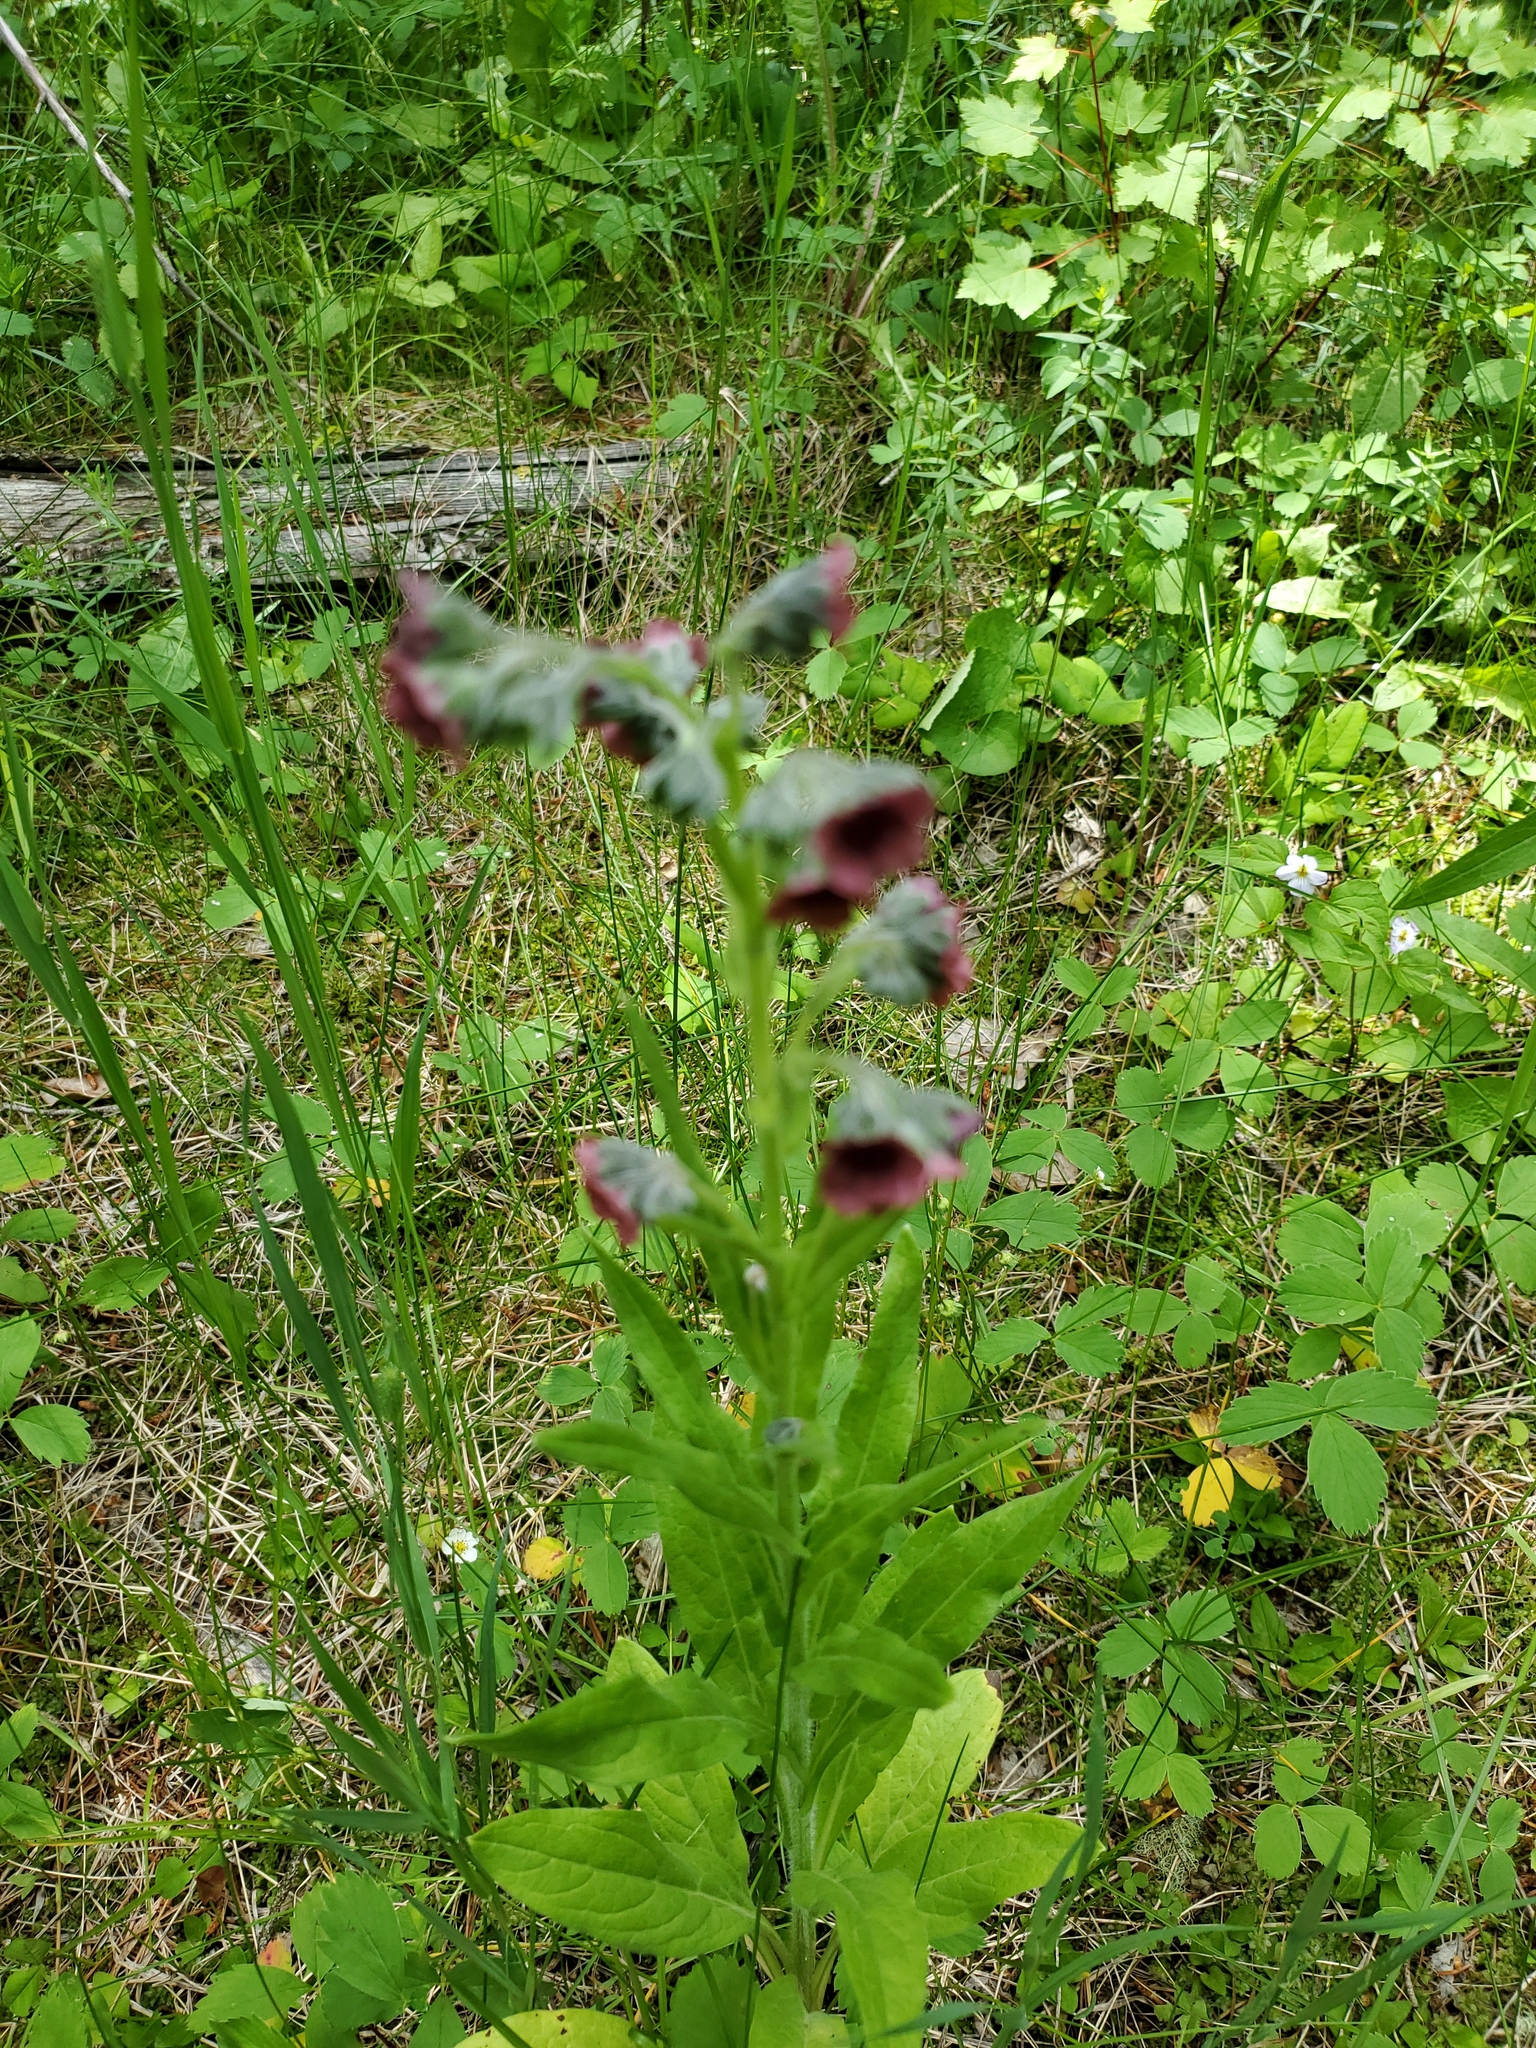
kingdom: Plantae
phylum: Tracheophyta
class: Magnoliopsida
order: Boraginales
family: Boraginaceae
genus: Cynoglossum
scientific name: Cynoglossum officinale
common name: Hound's-tongue
